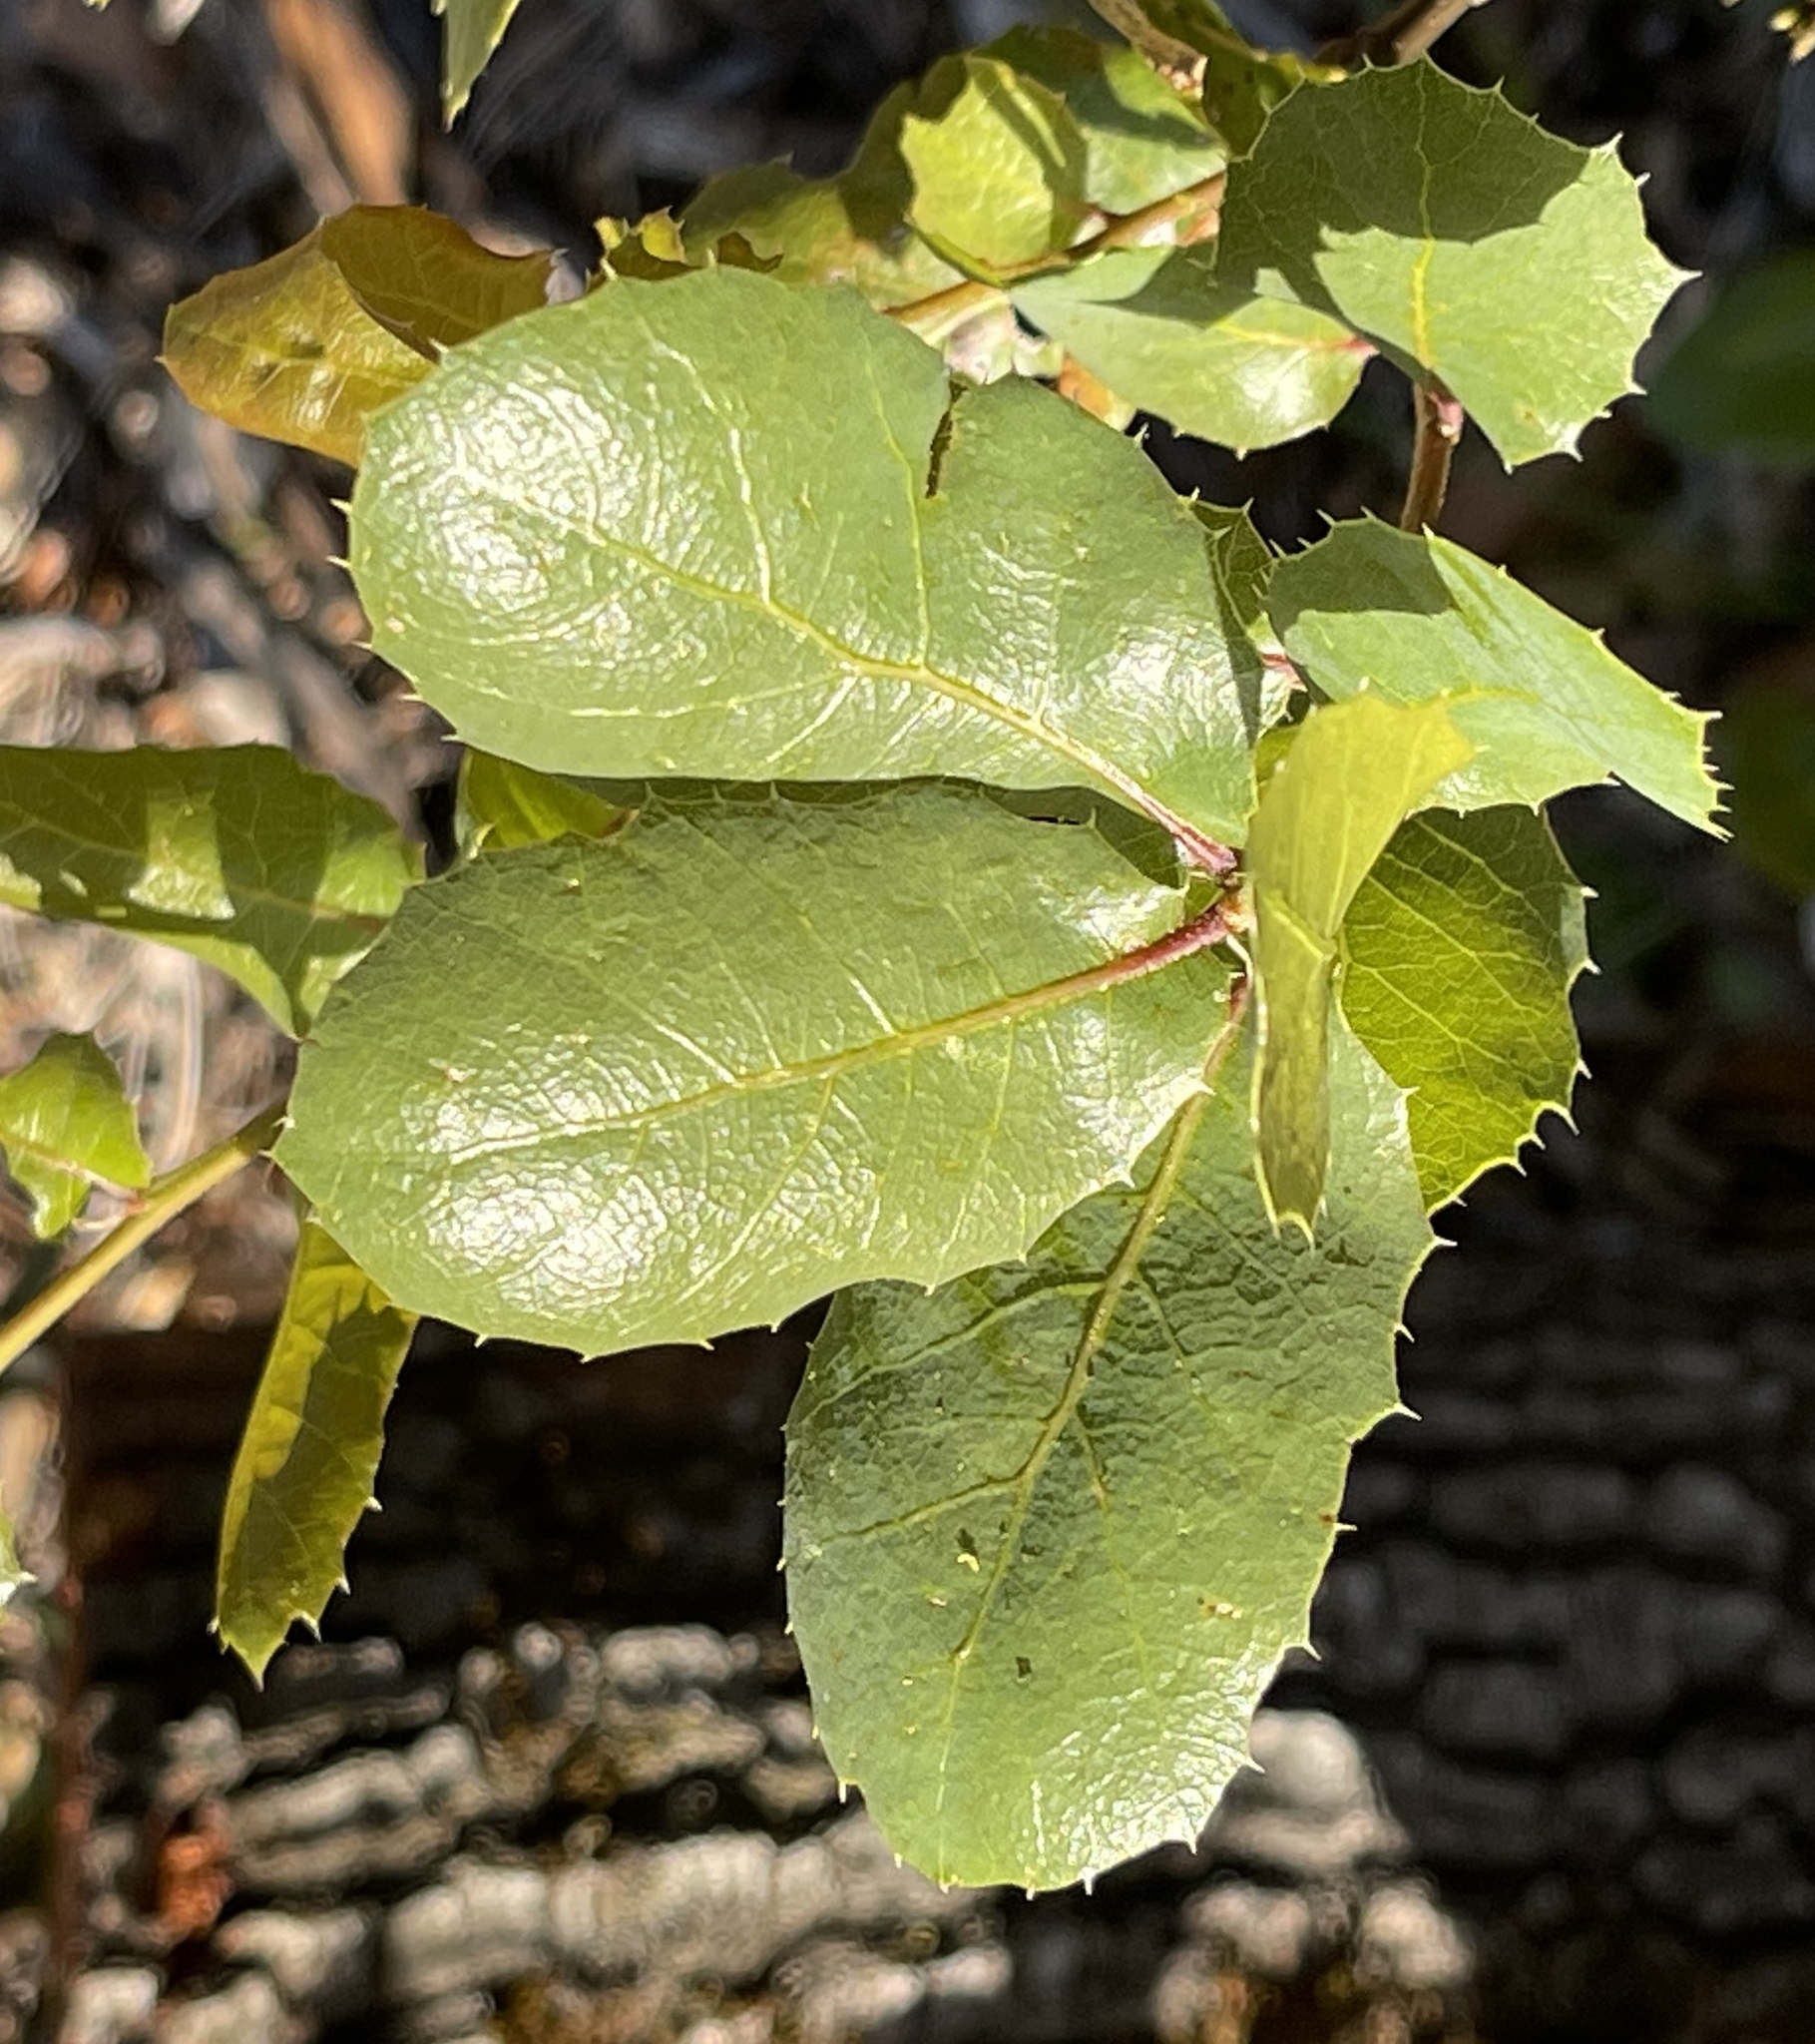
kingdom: Plantae
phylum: Tracheophyta
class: Magnoliopsida
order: Fagales
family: Fagaceae
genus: Quercus
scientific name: Quercus wislizeni
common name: Interior live oak
